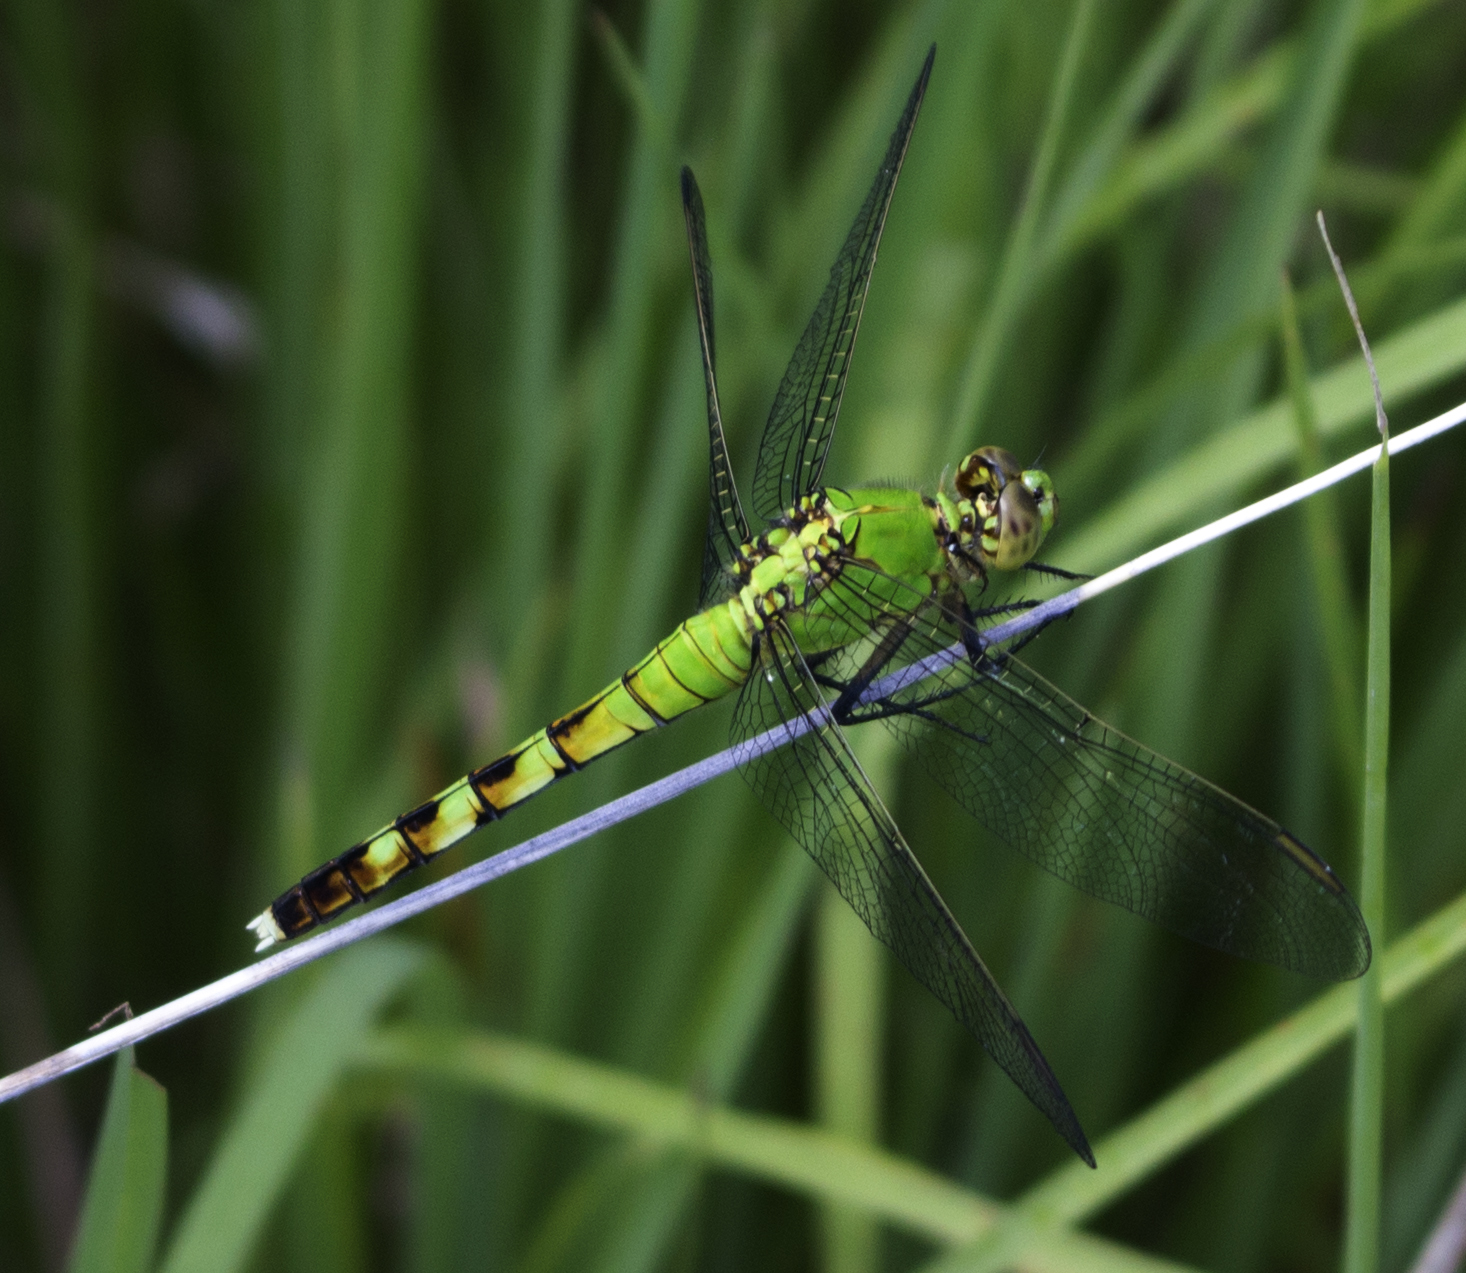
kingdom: Animalia
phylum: Arthropoda
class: Insecta
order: Odonata
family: Libellulidae
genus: Erythemis
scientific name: Erythemis simplicicollis
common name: Eastern pondhawk
